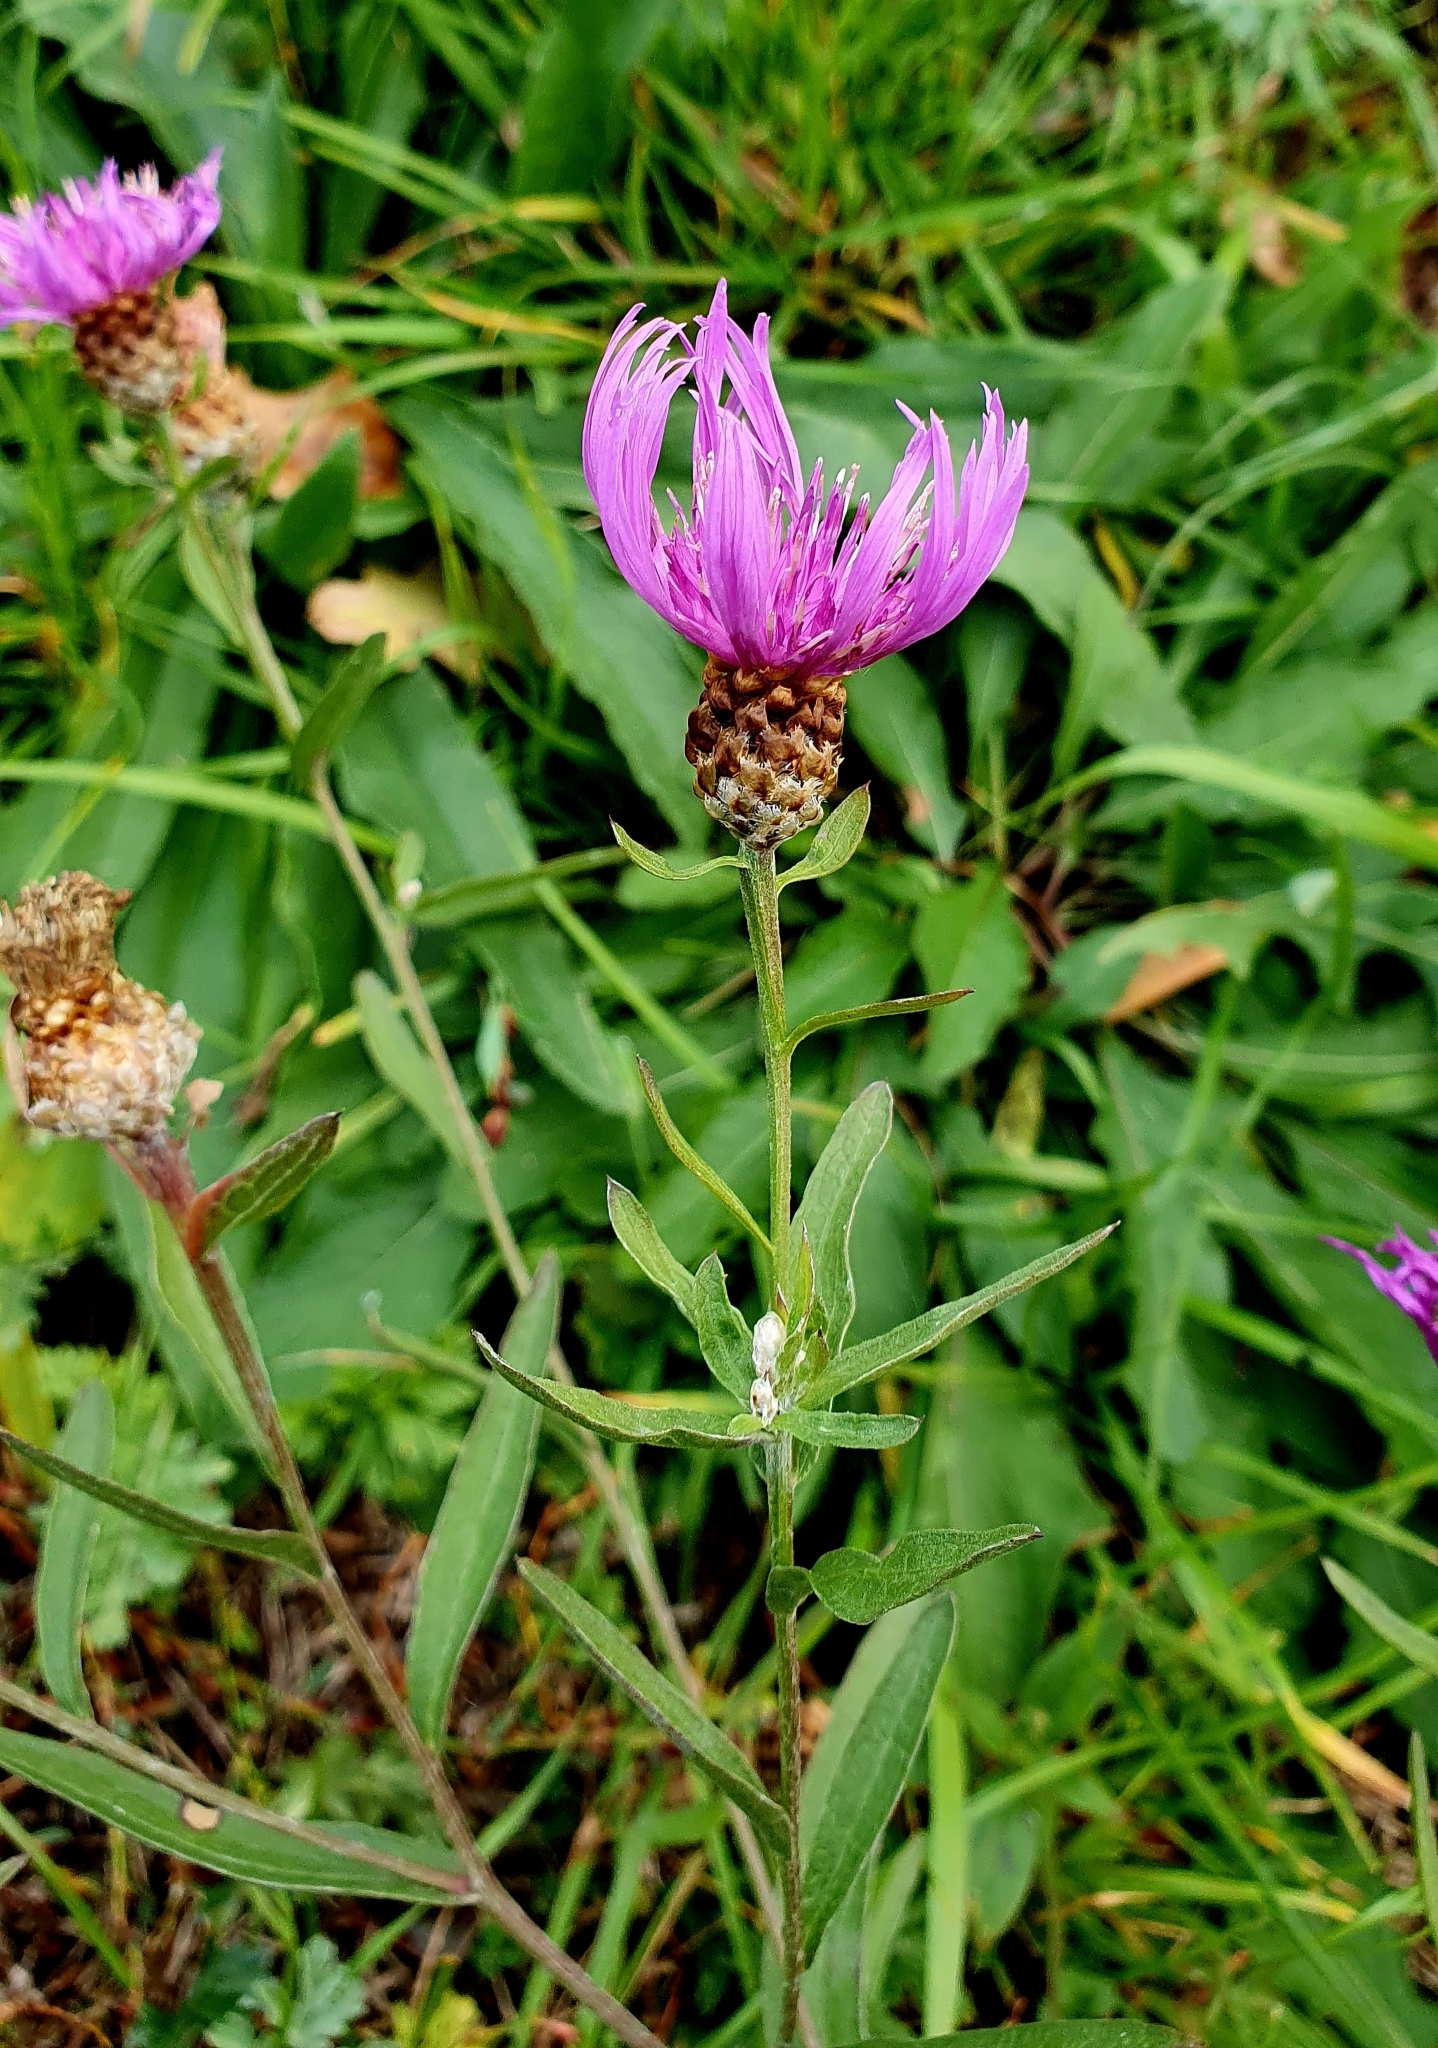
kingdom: Plantae
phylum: Tracheophyta
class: Magnoliopsida
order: Asterales
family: Asteraceae
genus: Centaurea
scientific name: Centaurea jacea
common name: Brown knapweed
